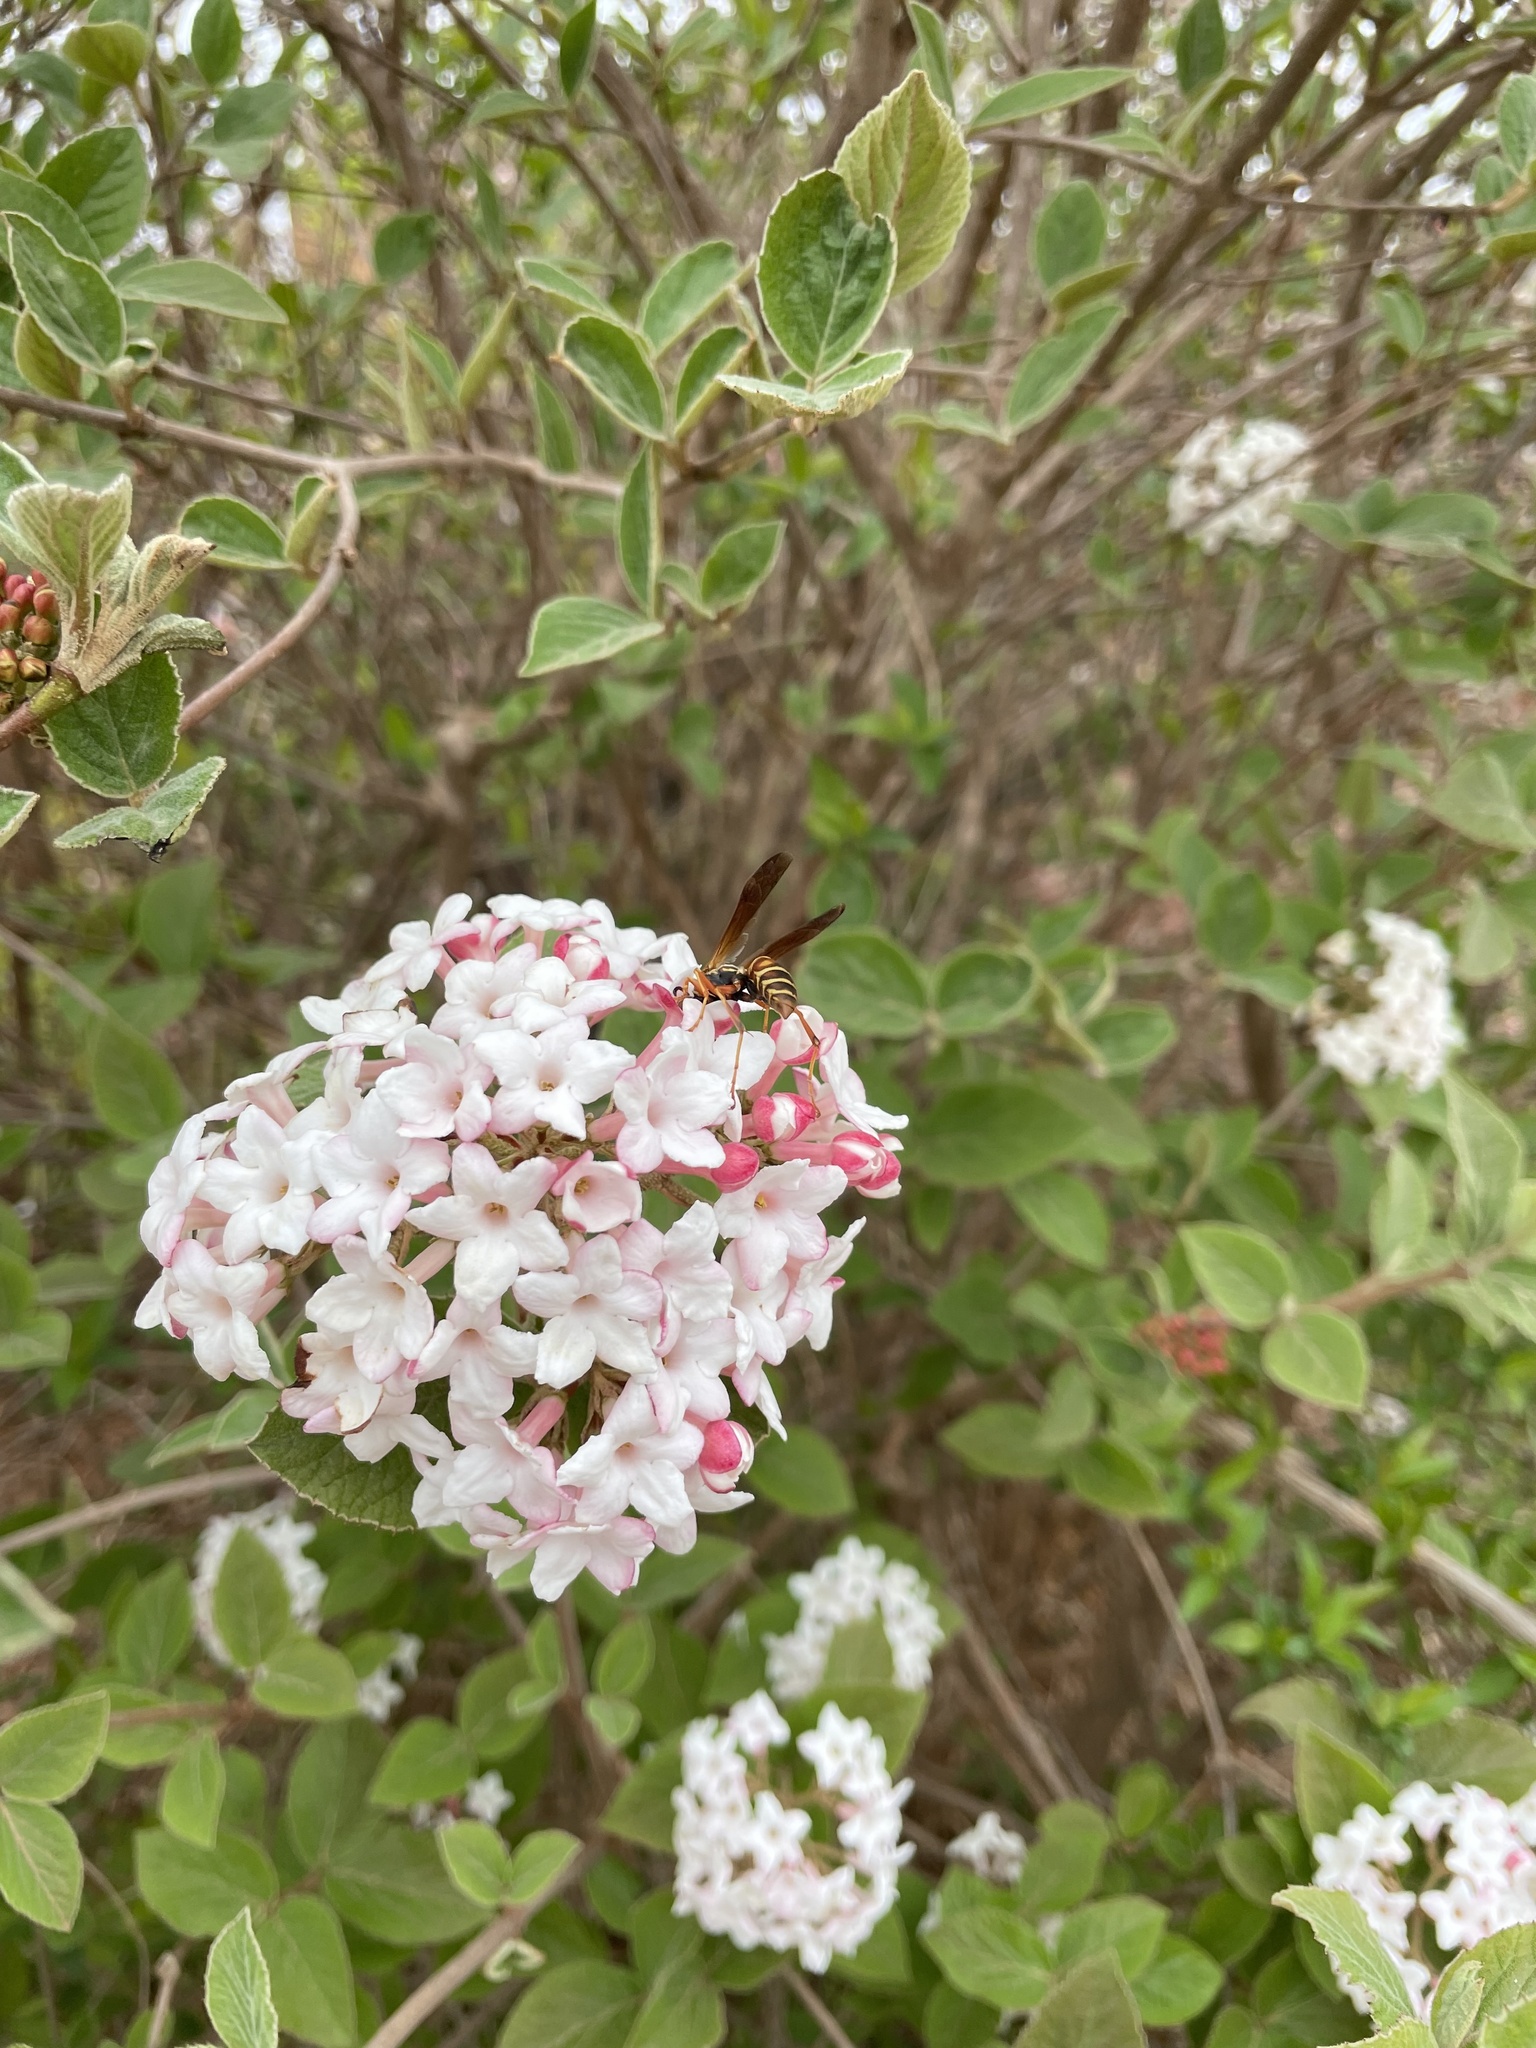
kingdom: Animalia
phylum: Arthropoda
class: Insecta
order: Hymenoptera
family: Eumenidae
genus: Polistes
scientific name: Polistes fuscatus
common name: Dark paper wasp
